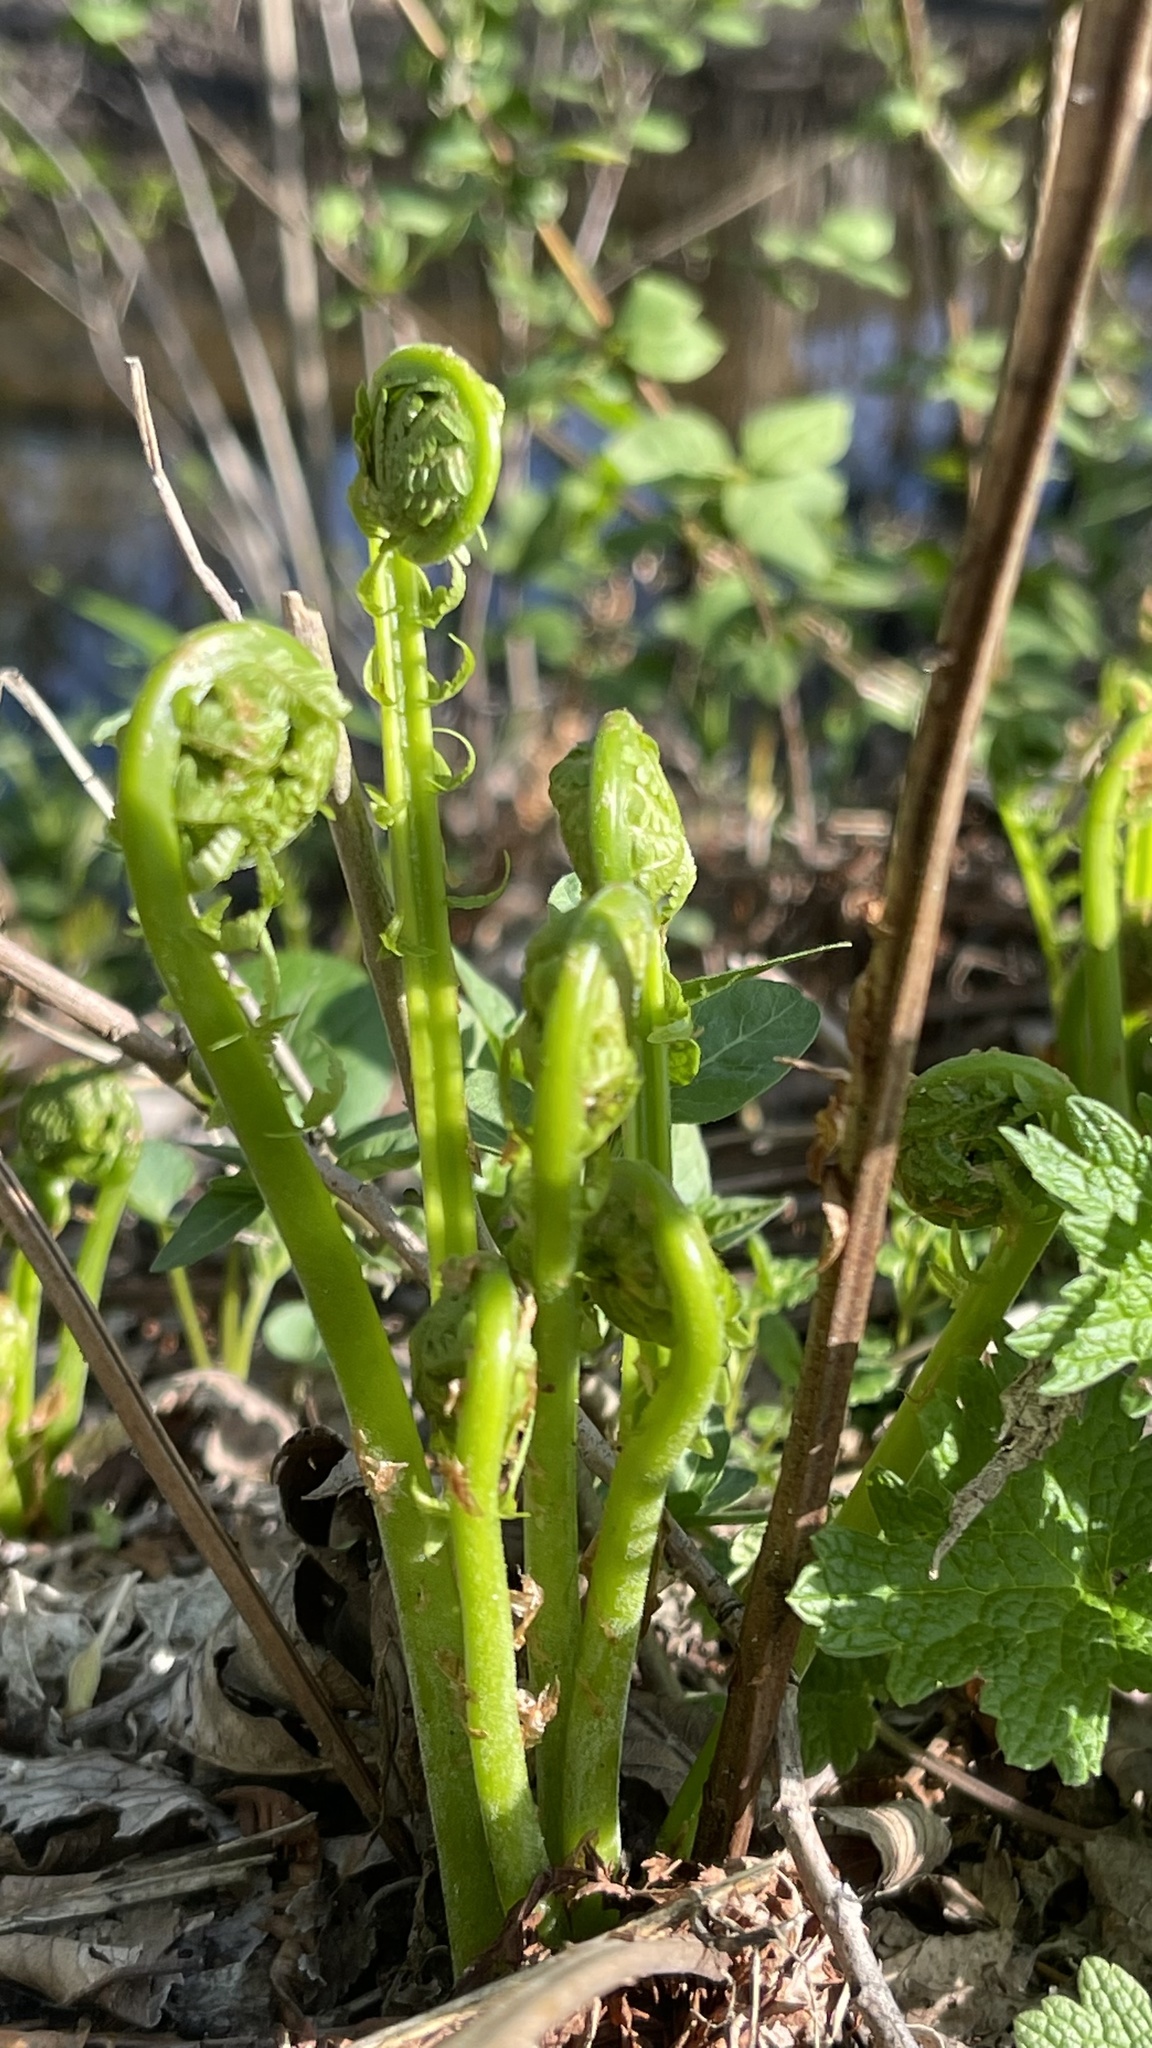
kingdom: Plantae
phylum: Tracheophyta
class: Polypodiopsida
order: Polypodiales
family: Onocleaceae
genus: Matteuccia
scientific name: Matteuccia struthiopteris
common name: Ostrich fern
